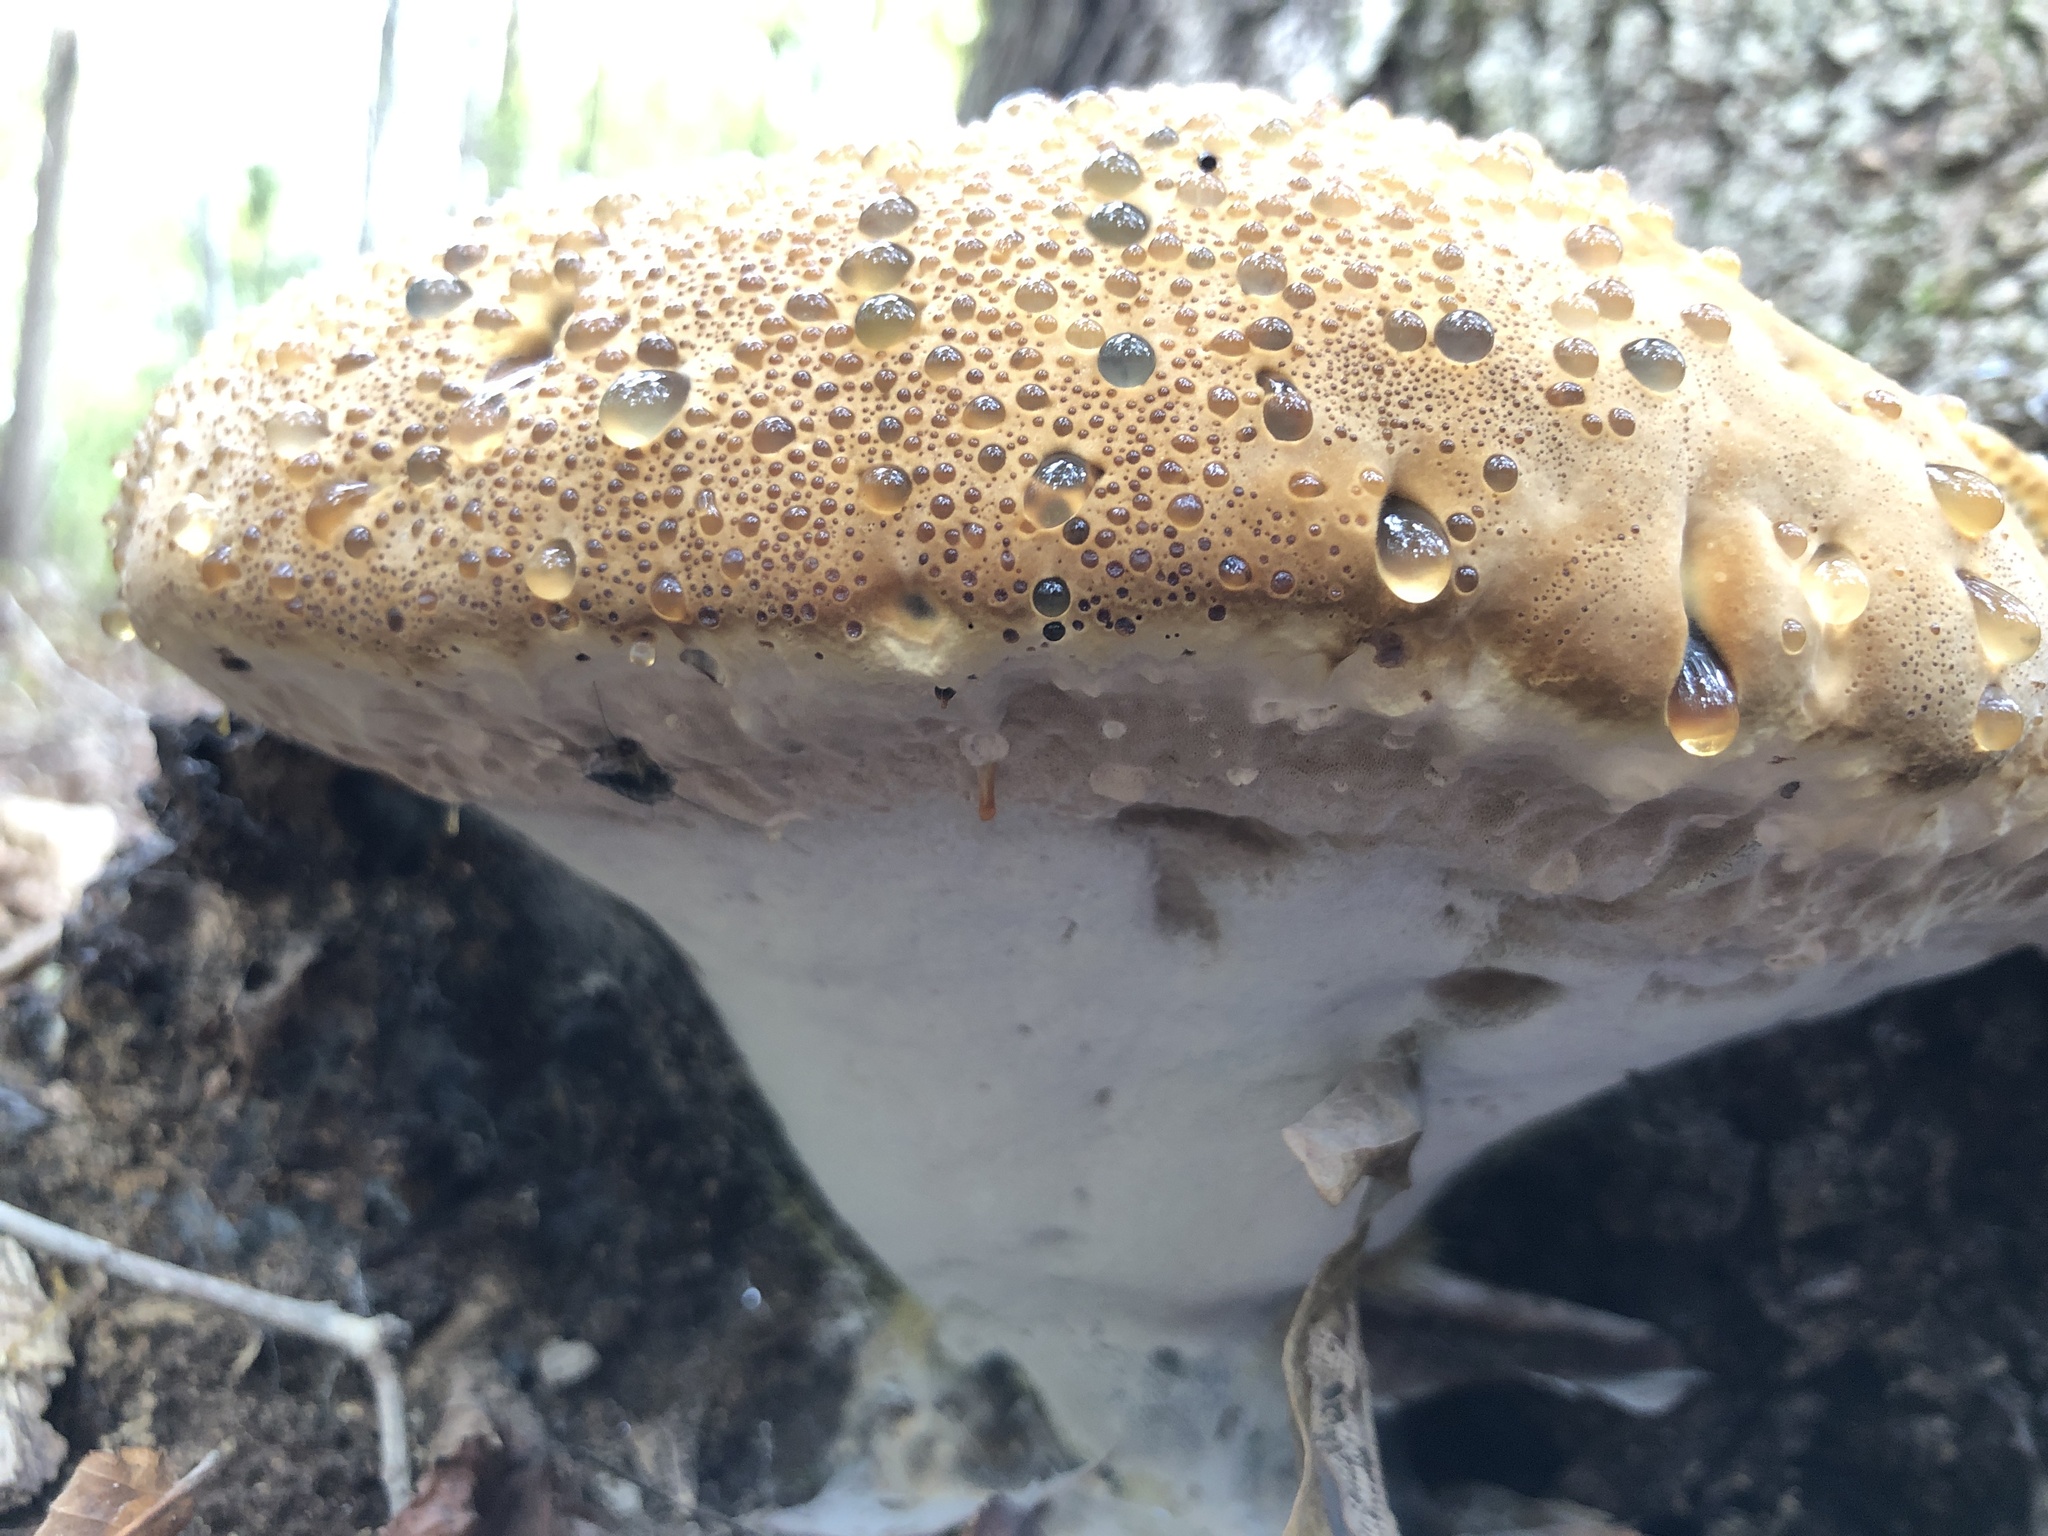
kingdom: Fungi
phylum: Basidiomycota
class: Agaricomycetes
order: Hymenochaetales
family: Hymenochaetaceae
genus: Pseudoinonotus
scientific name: Pseudoinonotus dryadeus
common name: Oak bracket
